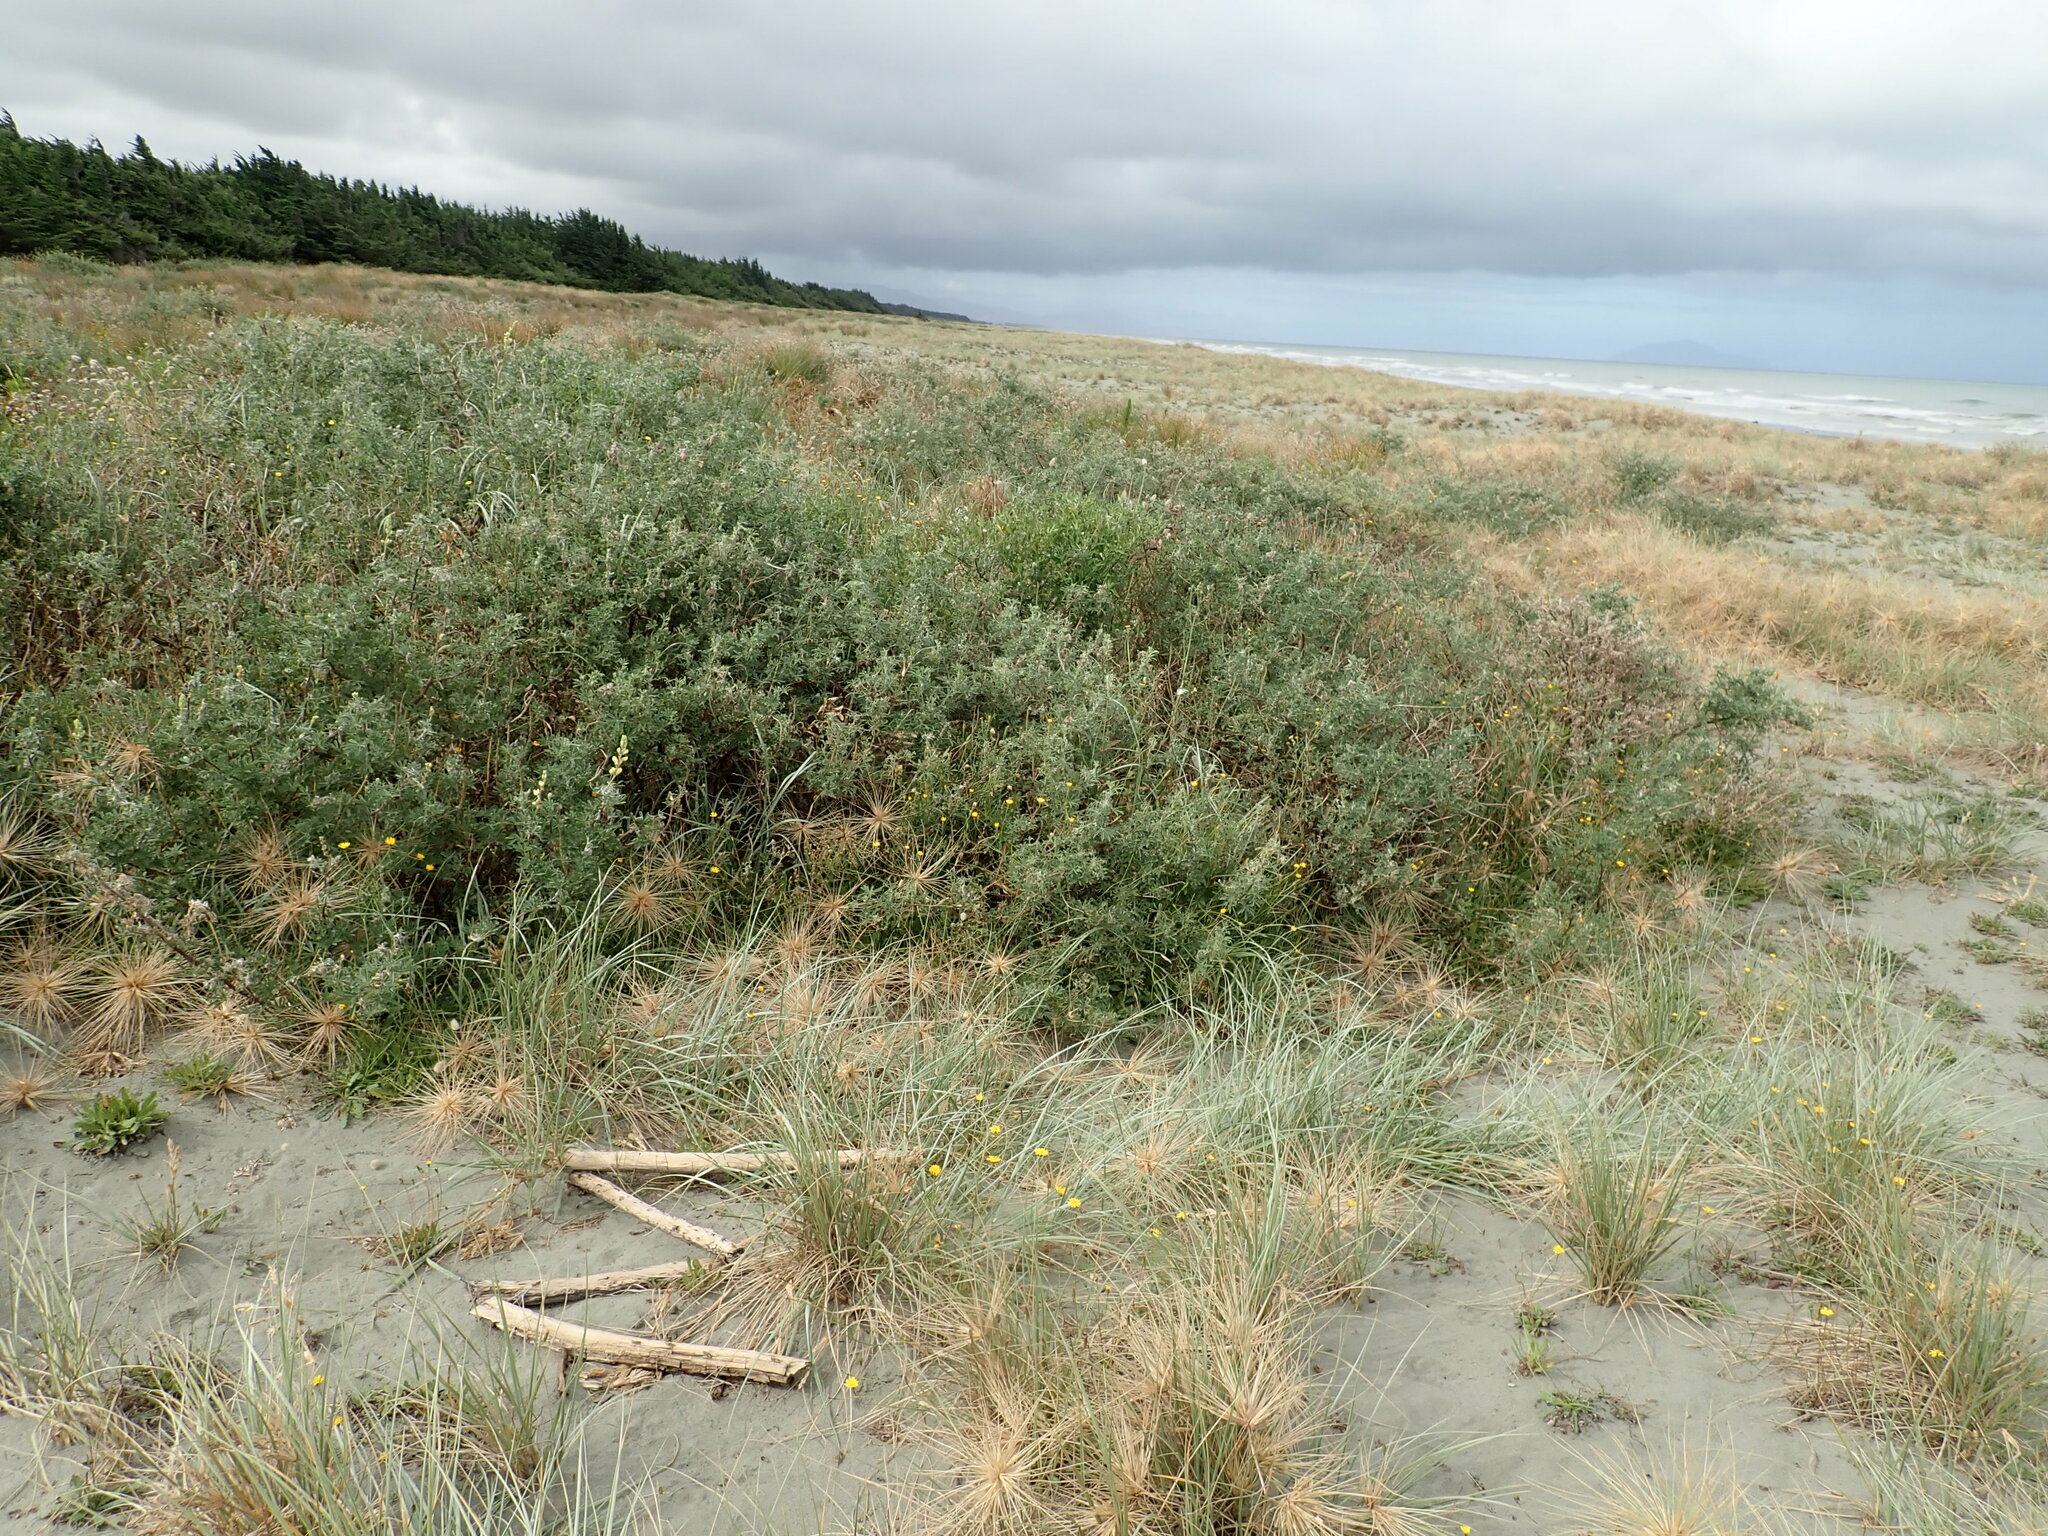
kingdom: Plantae
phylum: Tracheophyta
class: Magnoliopsida
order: Solanales
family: Solanaceae
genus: Solanum
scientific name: Solanum chenopodioides
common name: Tall nightshade
